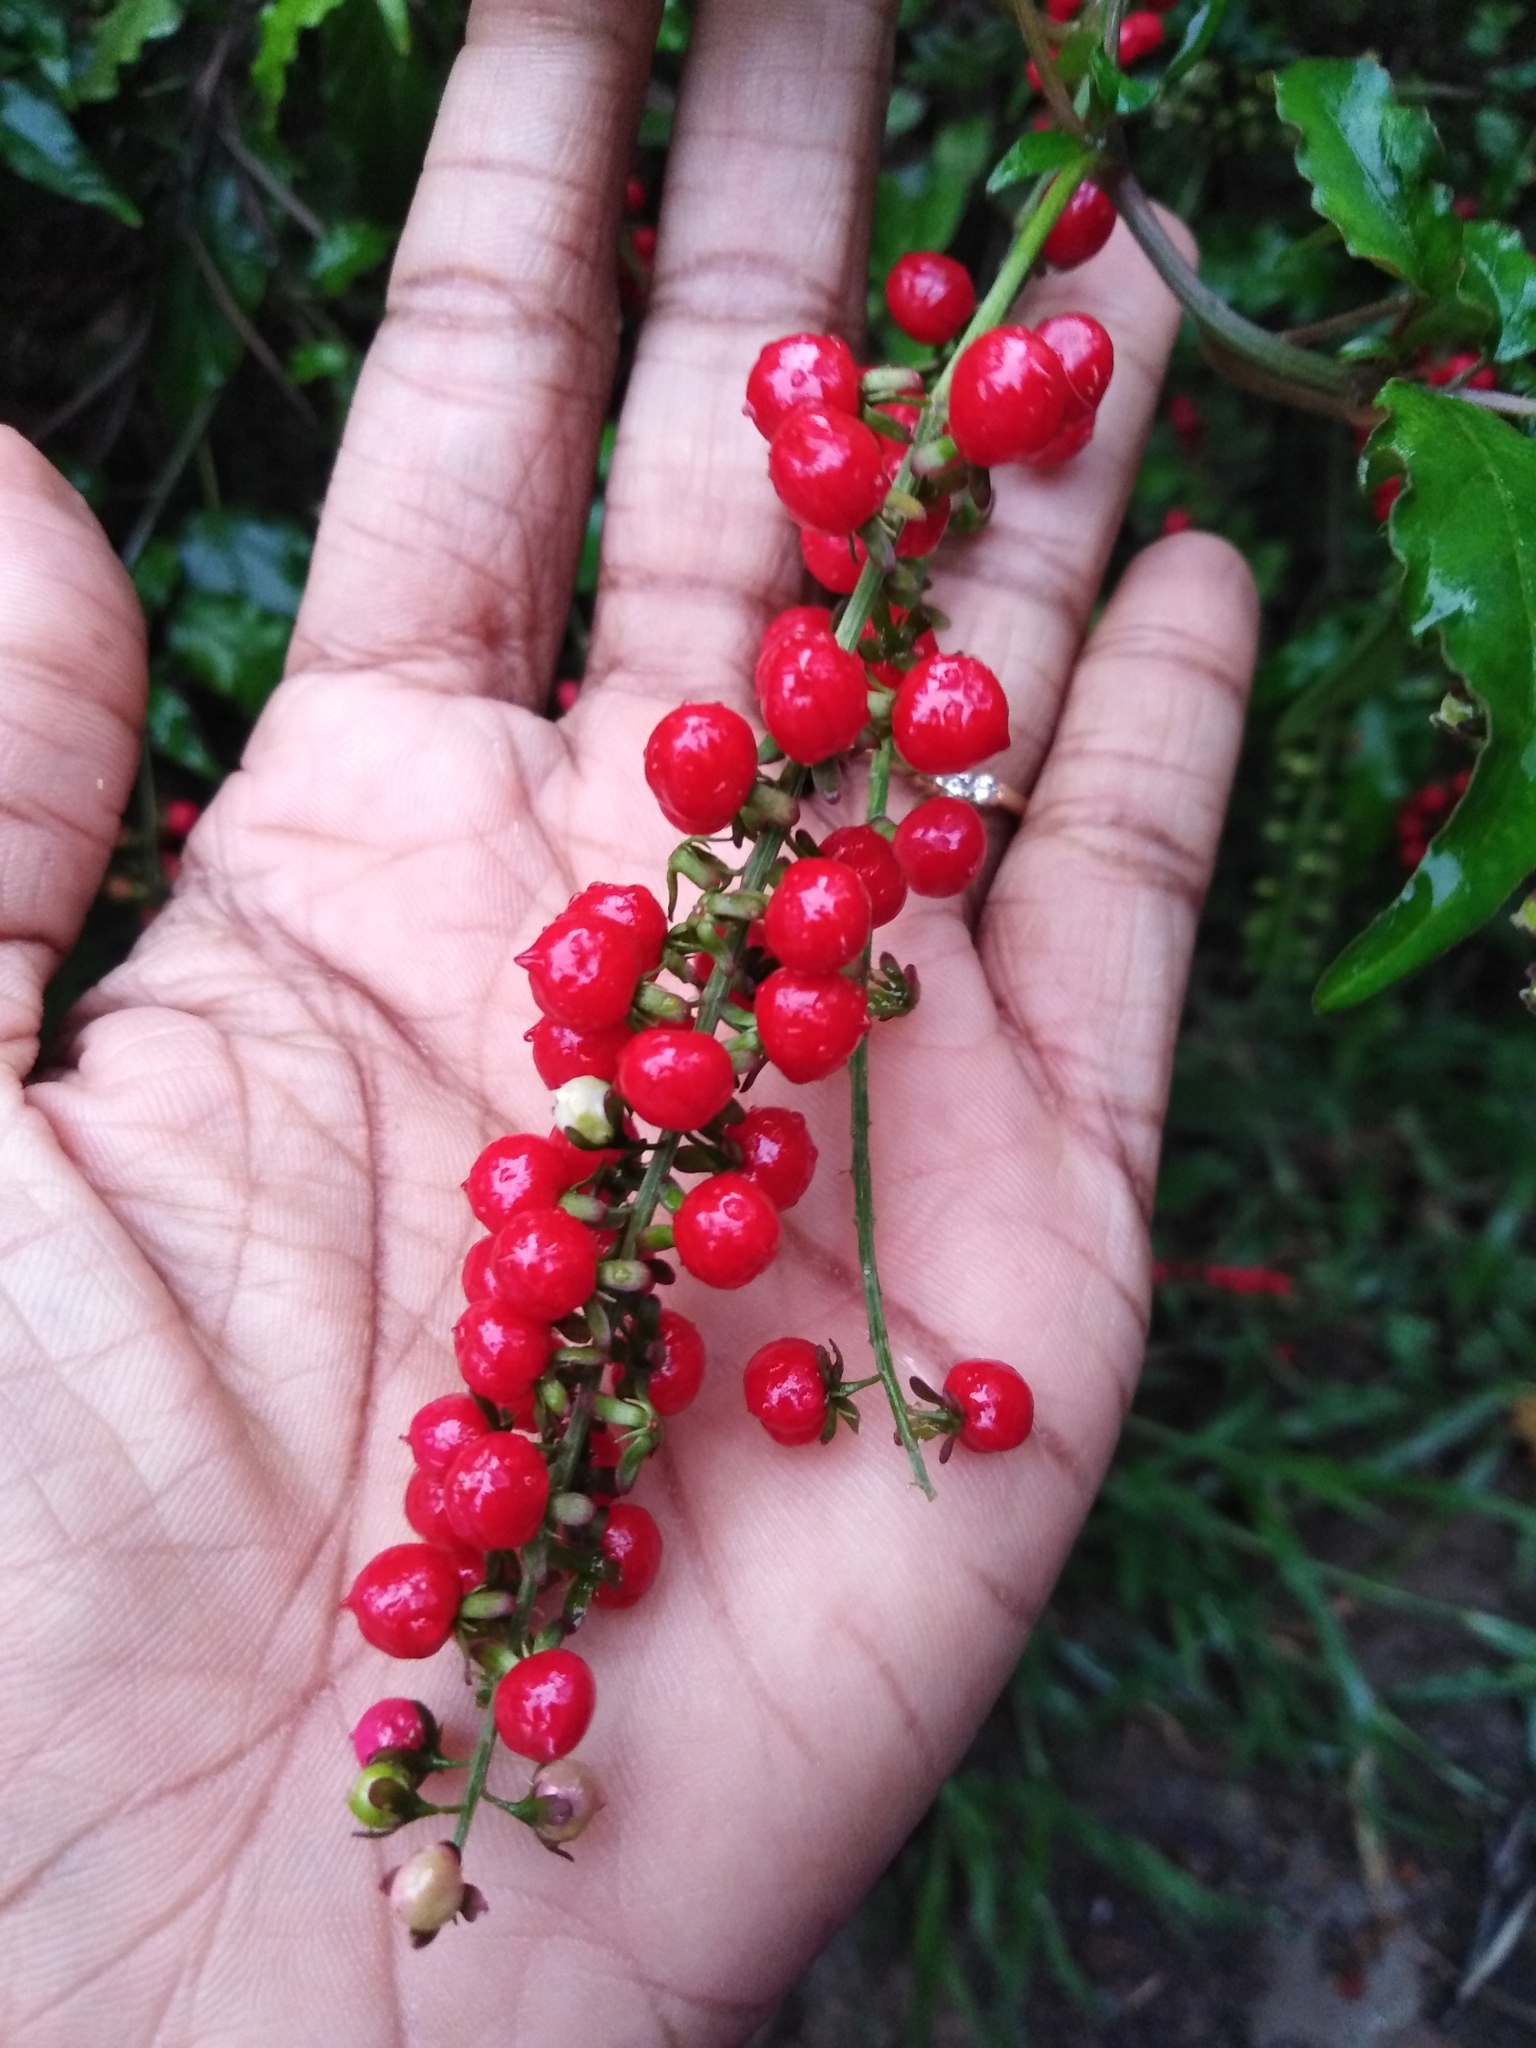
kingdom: Plantae
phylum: Tracheophyta
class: Magnoliopsida
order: Caryophyllales
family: Phytolaccaceae
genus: Rivina
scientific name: Rivina humilis
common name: Rougeplant
